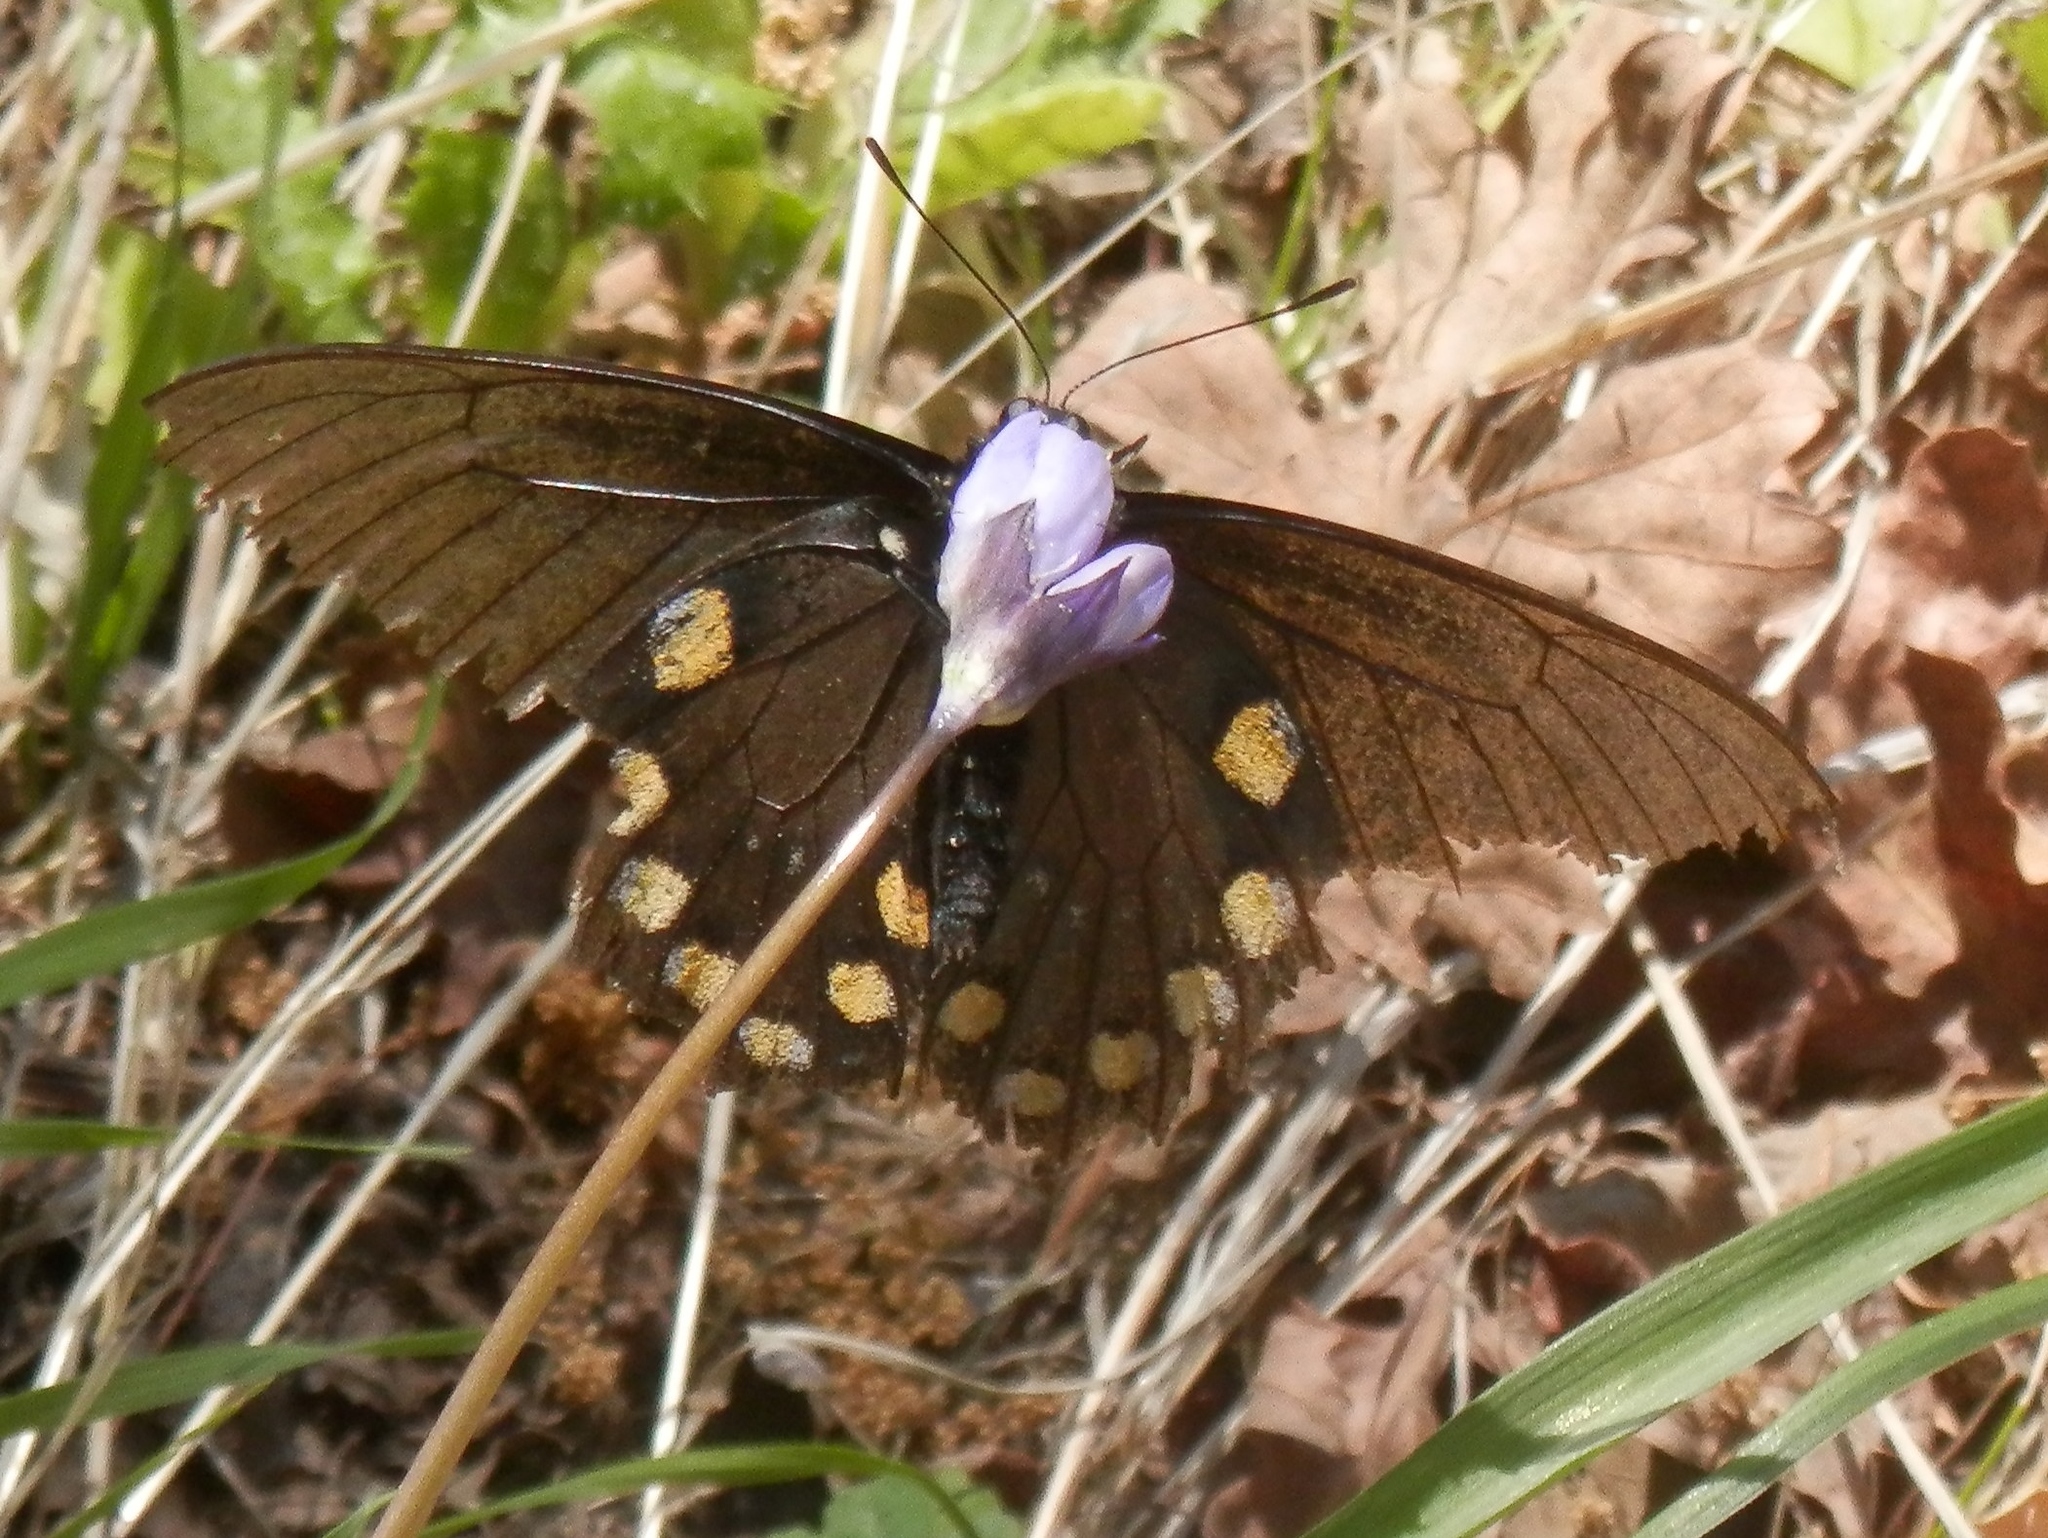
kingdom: Animalia
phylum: Arthropoda
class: Insecta
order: Lepidoptera
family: Papilionidae
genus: Battus
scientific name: Battus philenor
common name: Pipevine swallowtail
